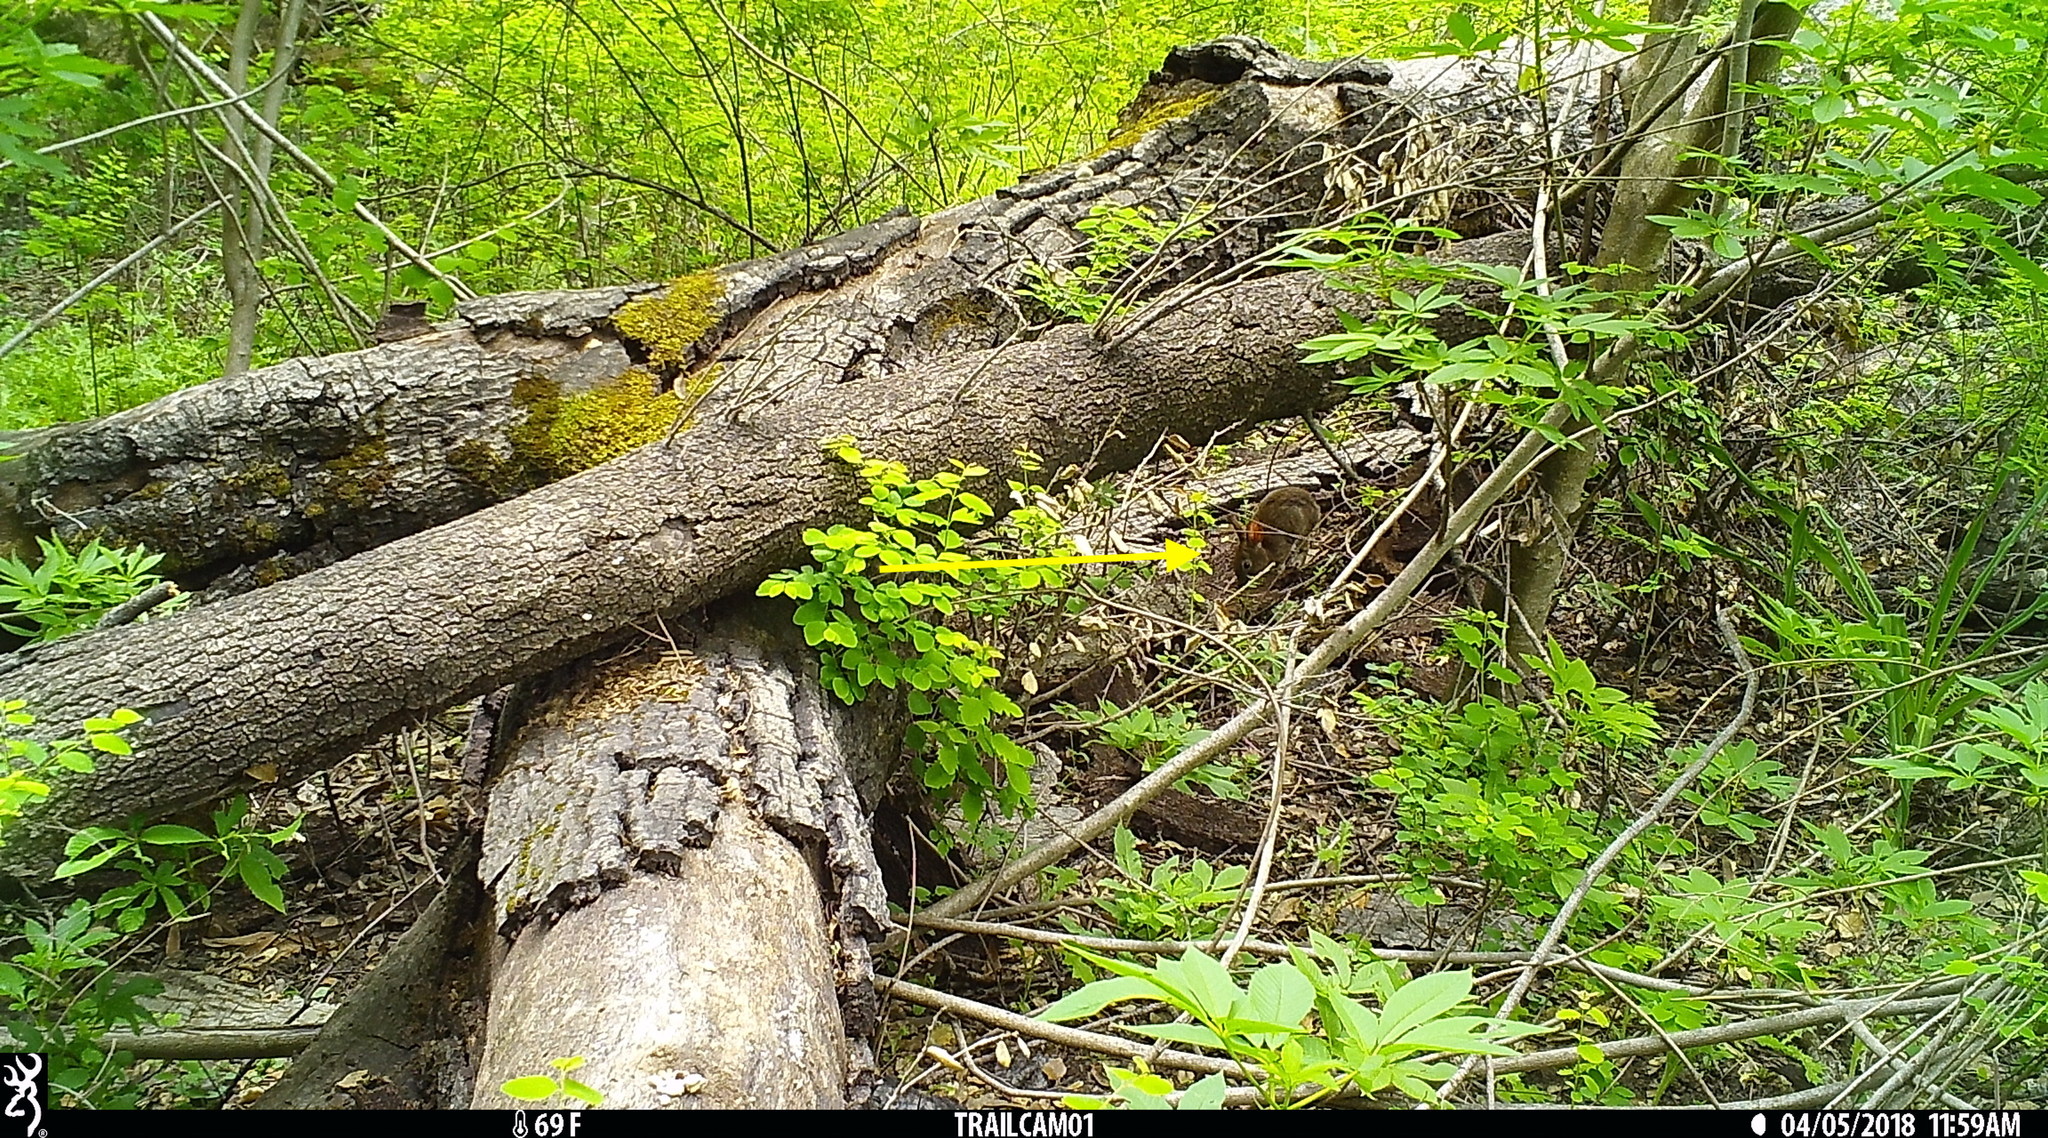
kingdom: Animalia
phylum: Chordata
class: Mammalia
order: Lagomorpha
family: Leporidae
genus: Sylvilagus
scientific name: Sylvilagus bachmani
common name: Brush rabbit
